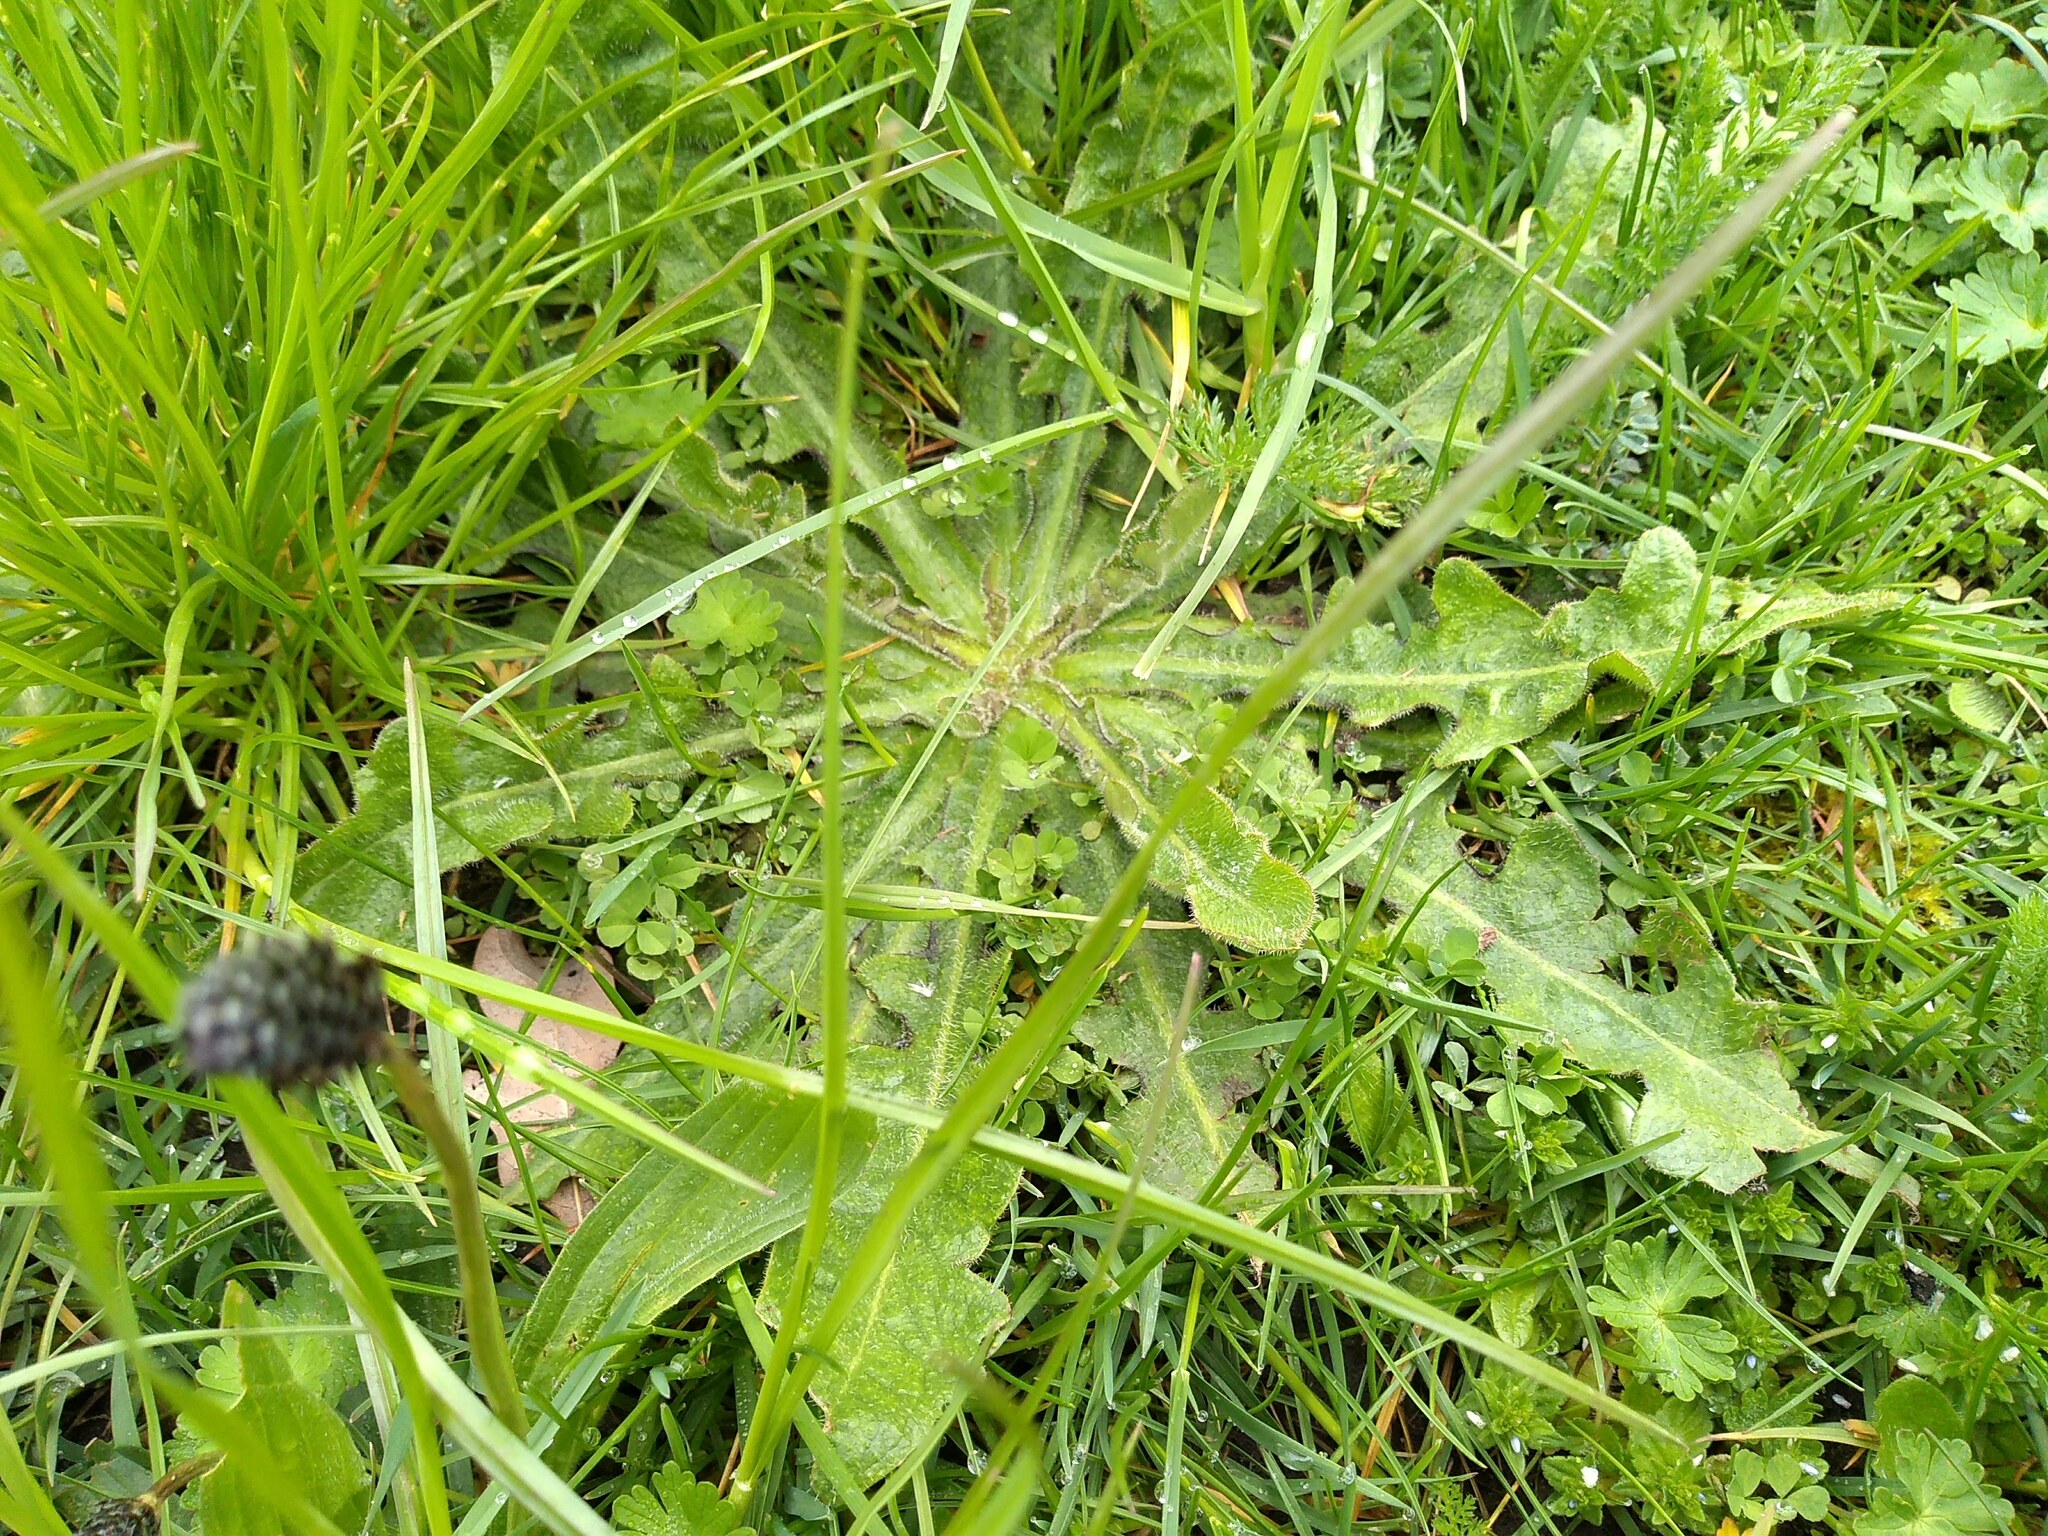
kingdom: Plantae
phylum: Tracheophyta
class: Magnoliopsida
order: Asterales
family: Asteraceae
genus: Hypochaeris
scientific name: Hypochaeris radicata
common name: Flatweed
